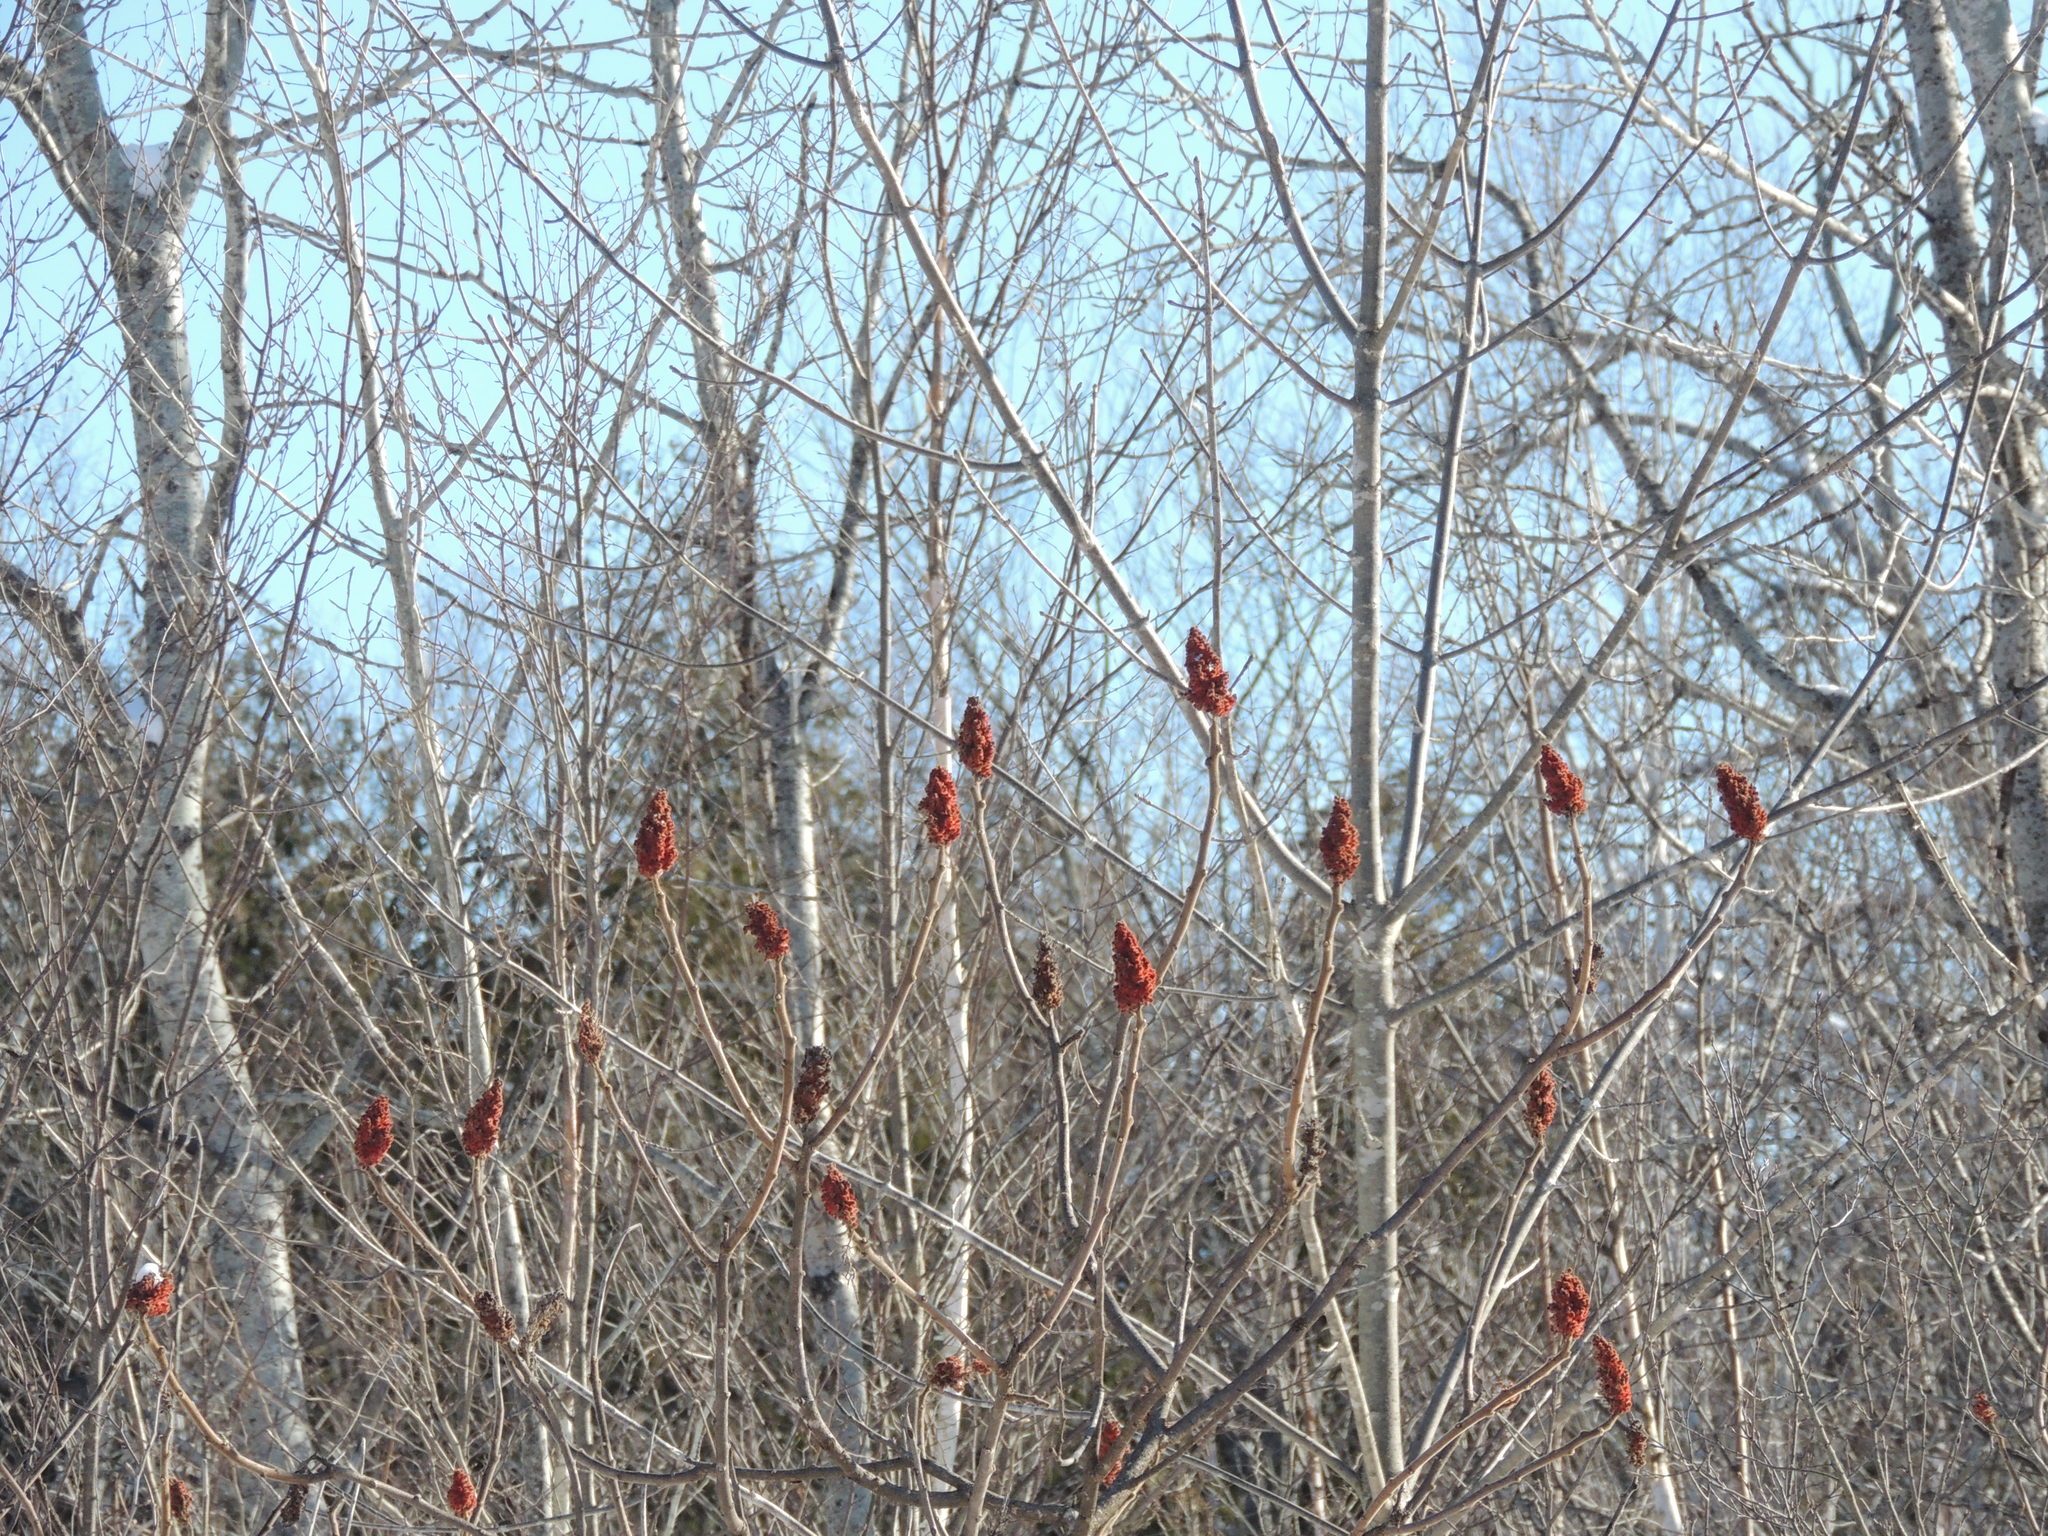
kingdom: Plantae
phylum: Tracheophyta
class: Magnoliopsida
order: Sapindales
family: Anacardiaceae
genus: Rhus
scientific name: Rhus typhina
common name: Staghorn sumac
